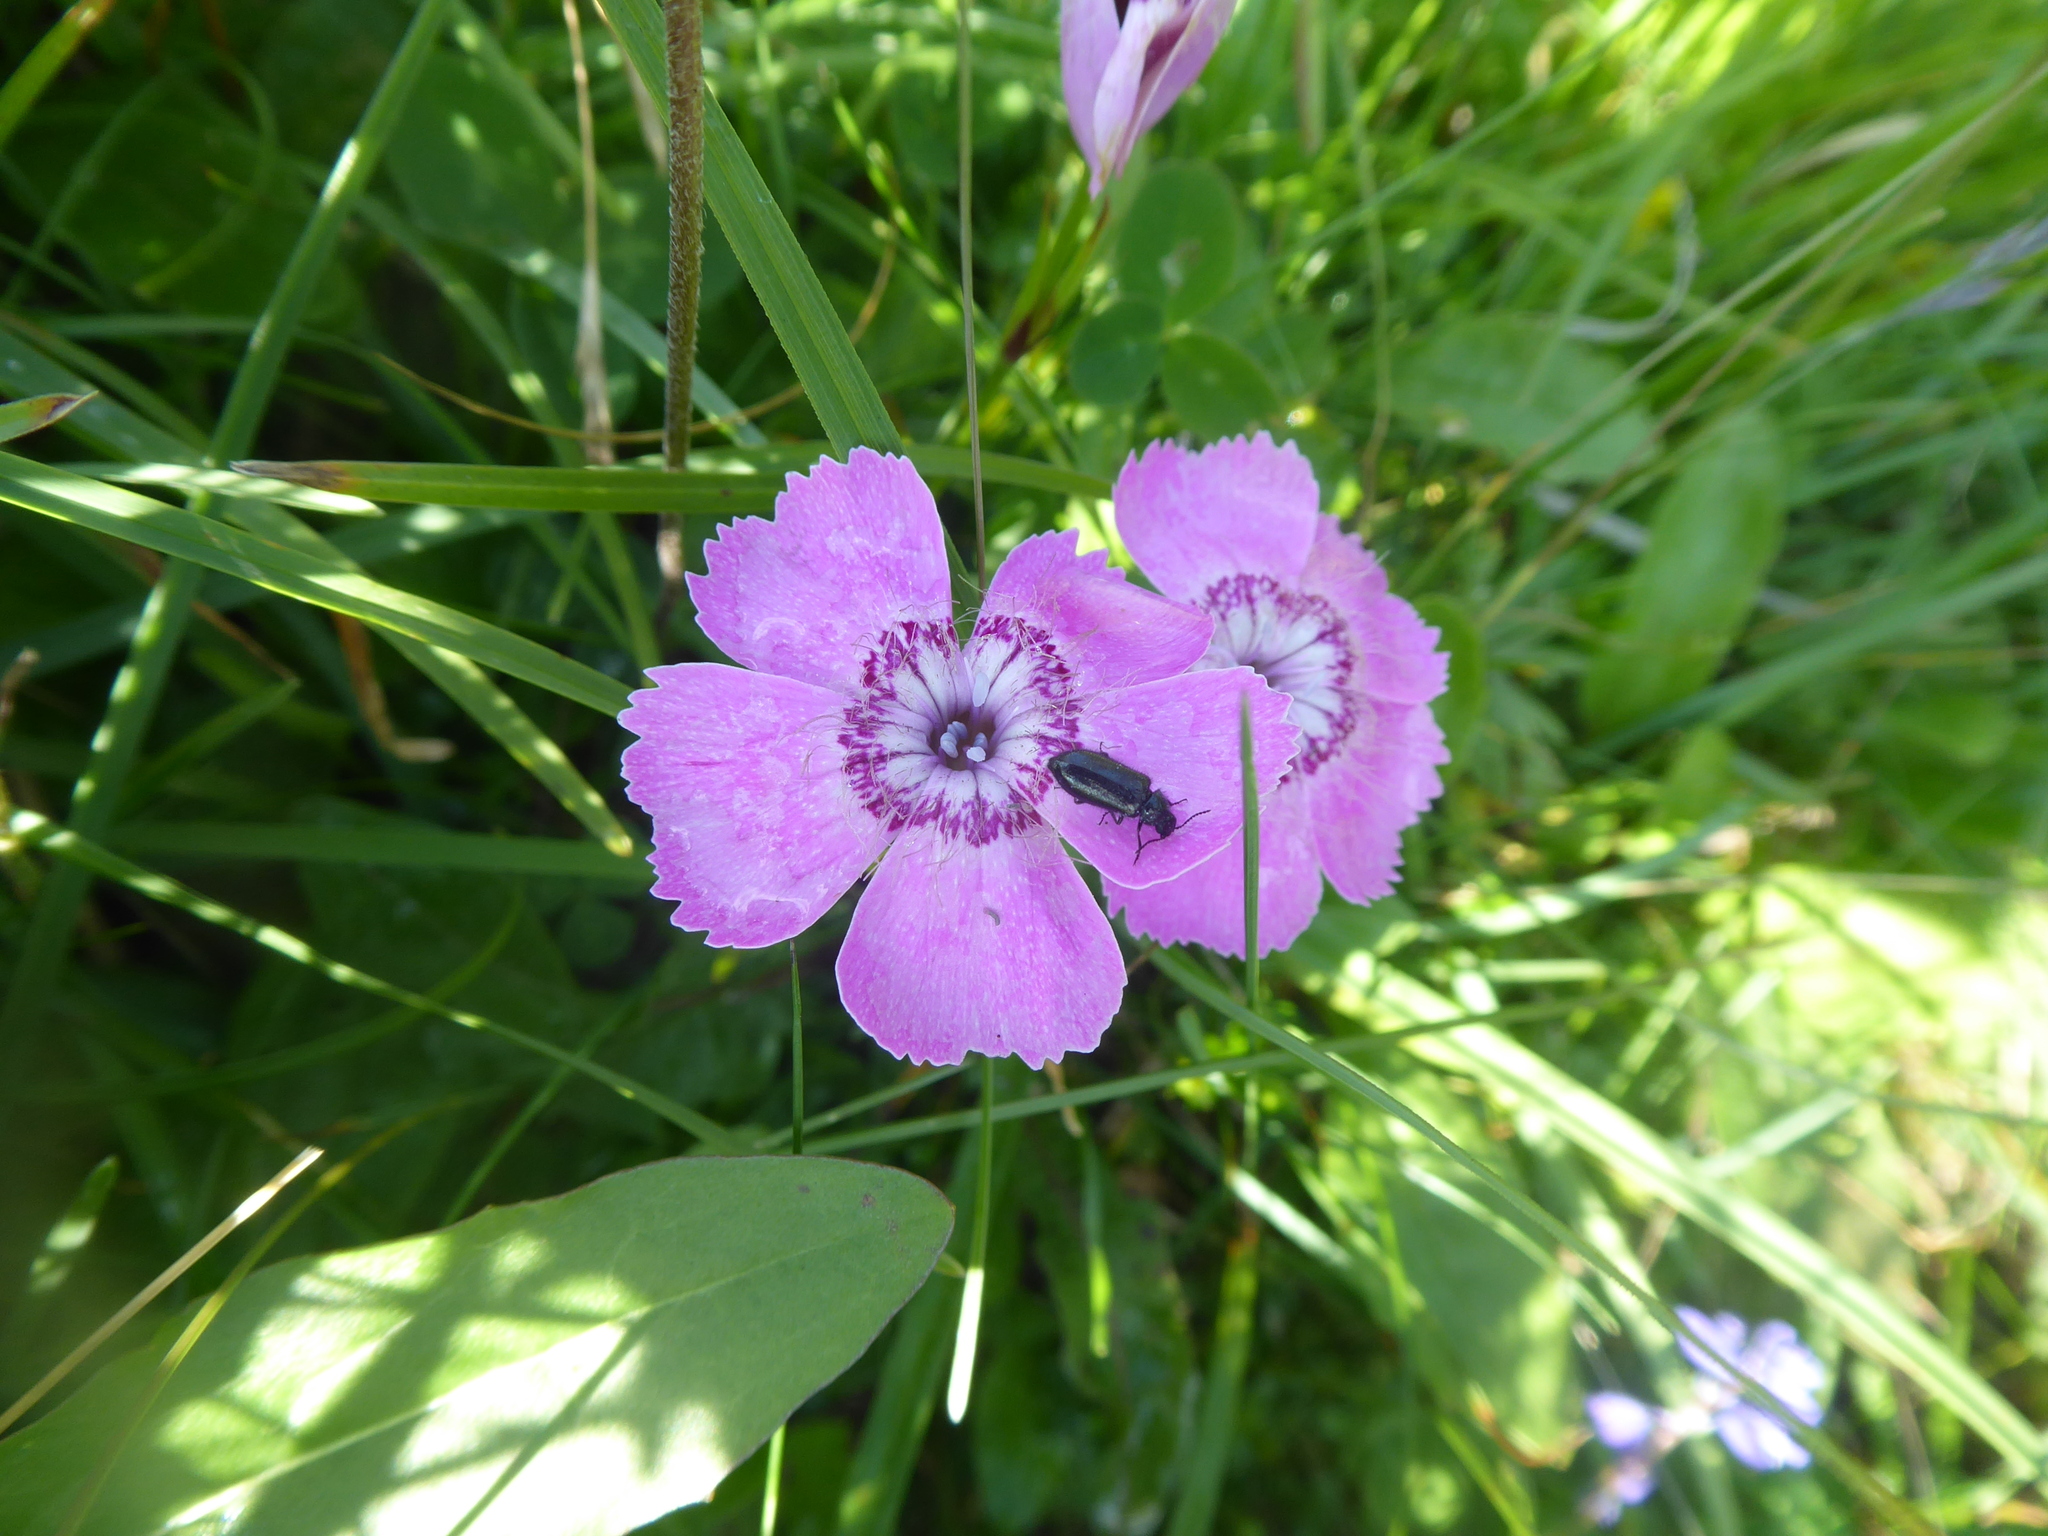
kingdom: Plantae
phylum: Tracheophyta
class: Magnoliopsida
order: Caryophyllales
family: Caryophyllaceae
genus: Dianthus
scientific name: Dianthus alpinus
